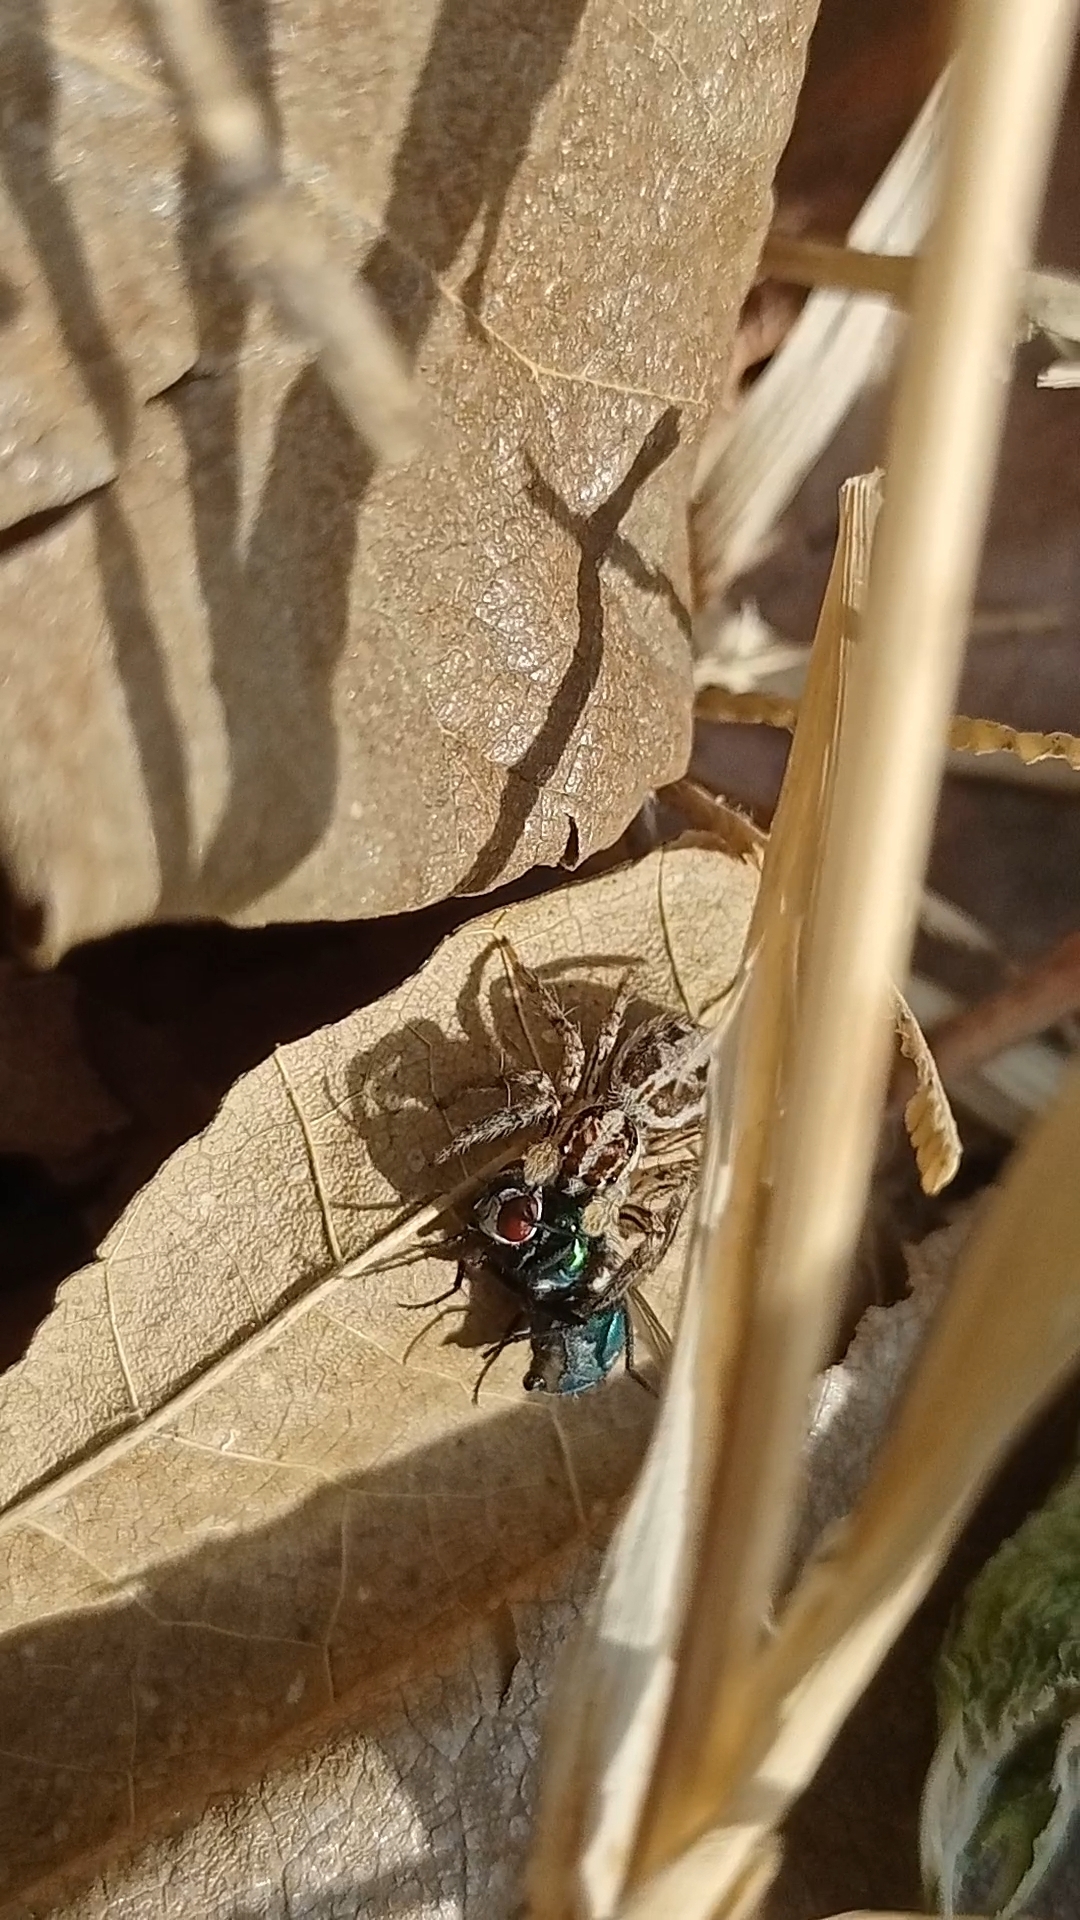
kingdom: Animalia
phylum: Arthropoda
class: Arachnida
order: Araneae
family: Salticidae
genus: Plexippus
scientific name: Plexippus paykulli
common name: Pantropical jumper
